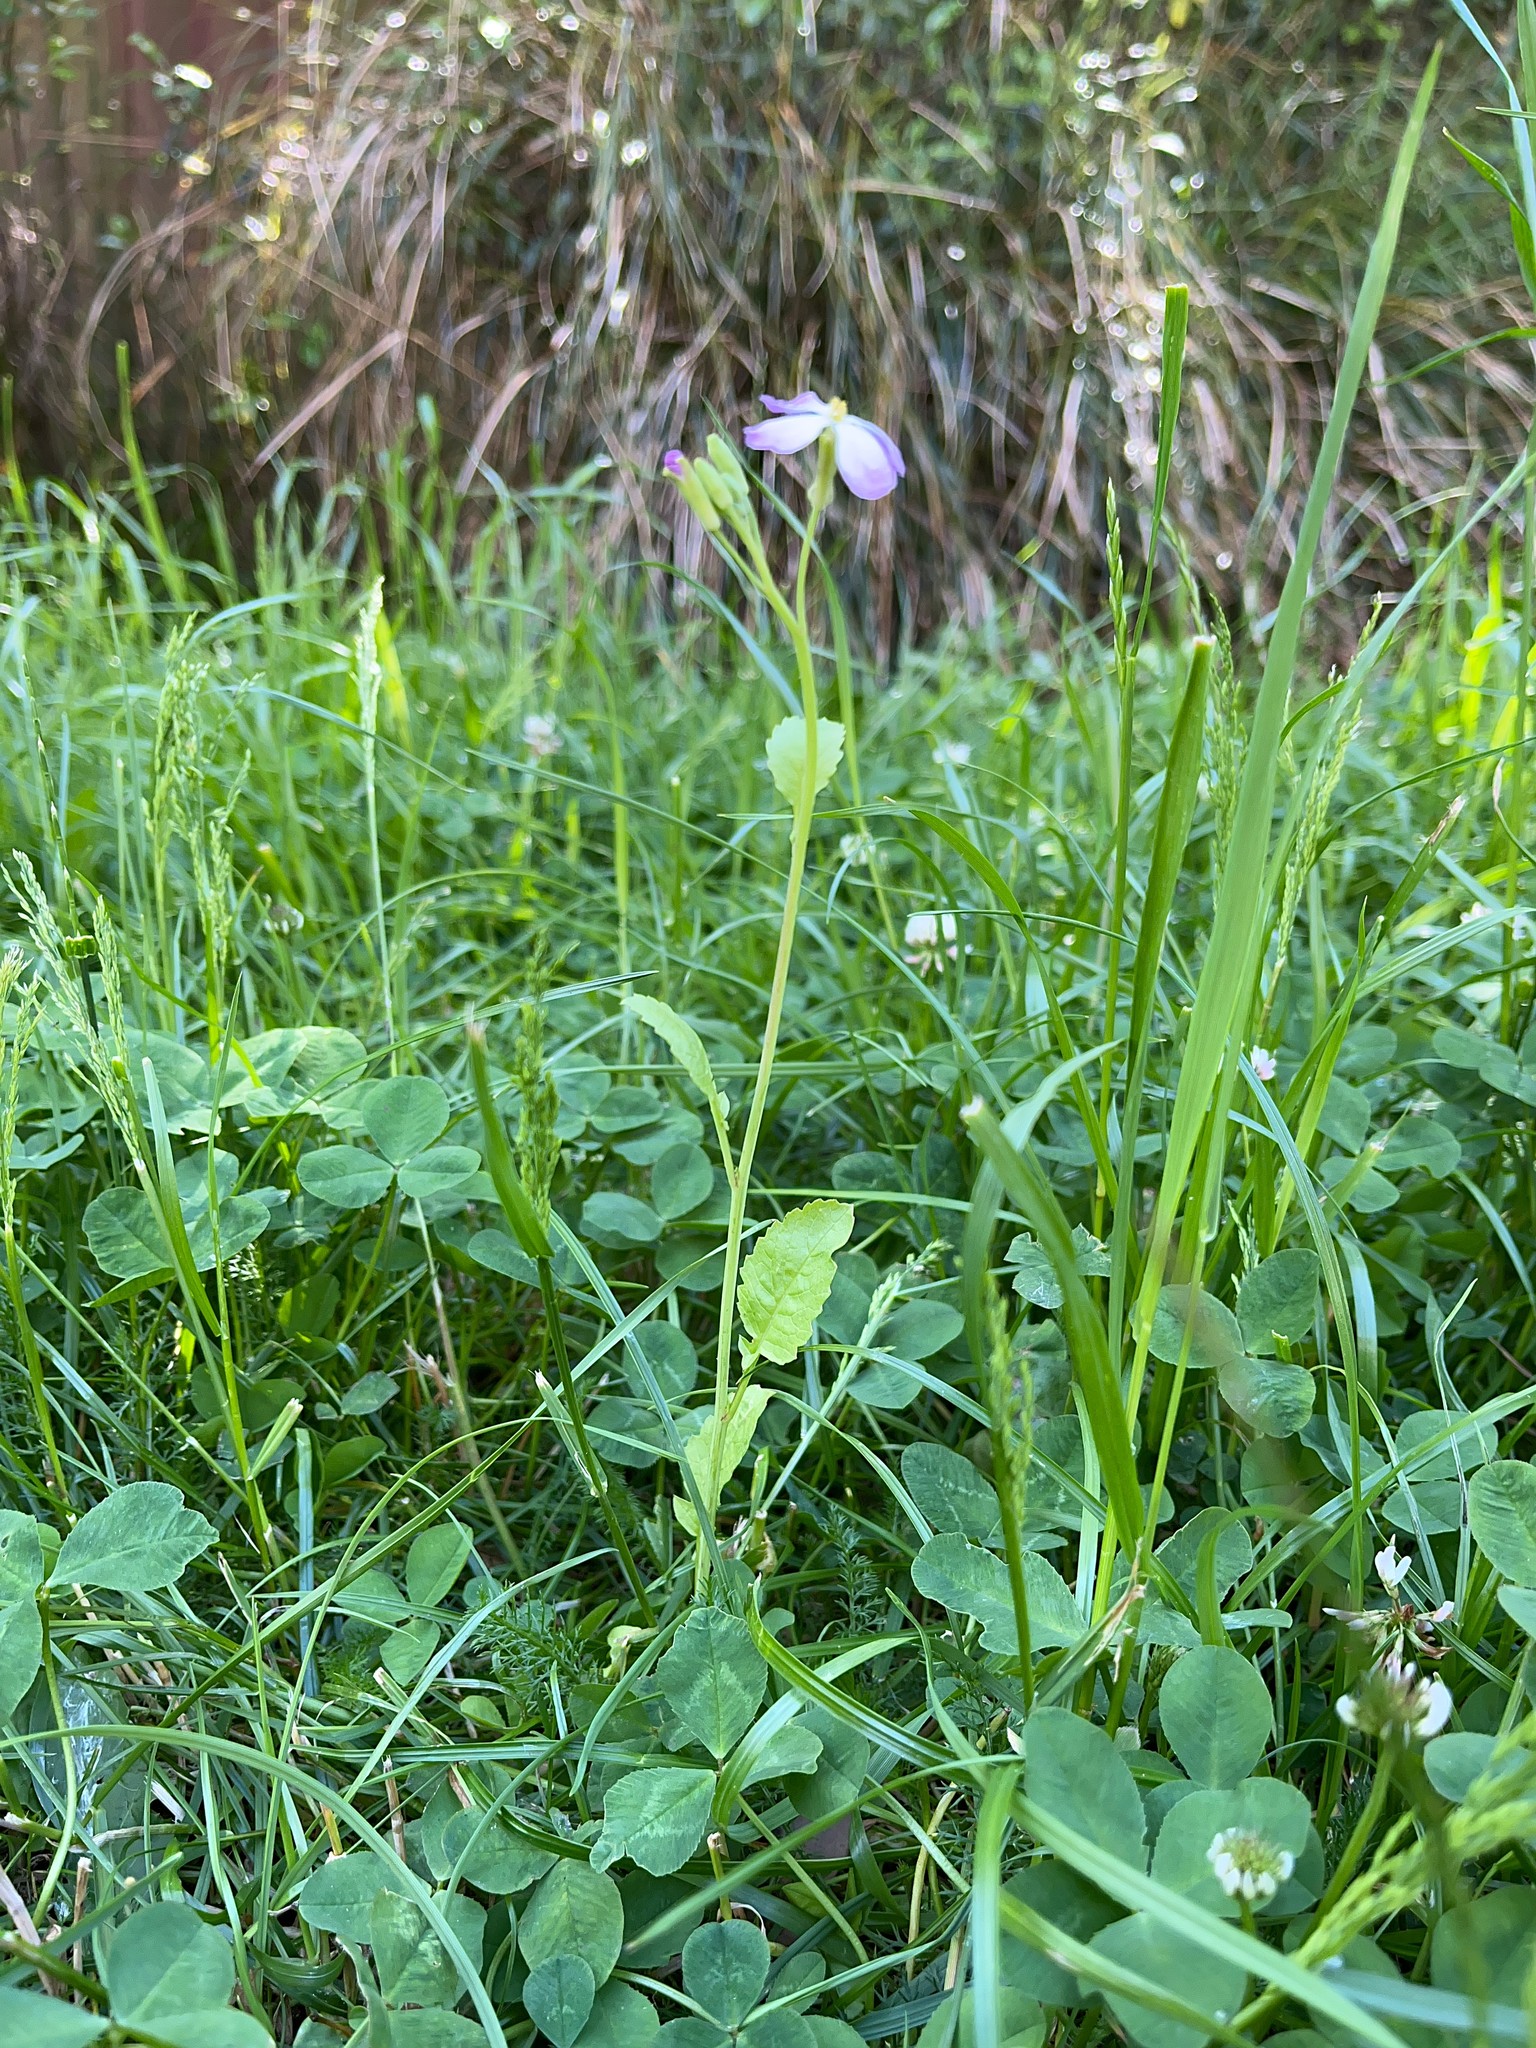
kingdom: Plantae
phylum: Tracheophyta
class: Magnoliopsida
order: Brassicales
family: Brassicaceae
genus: Raphanus
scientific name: Raphanus sativus
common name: Cultivated radish
